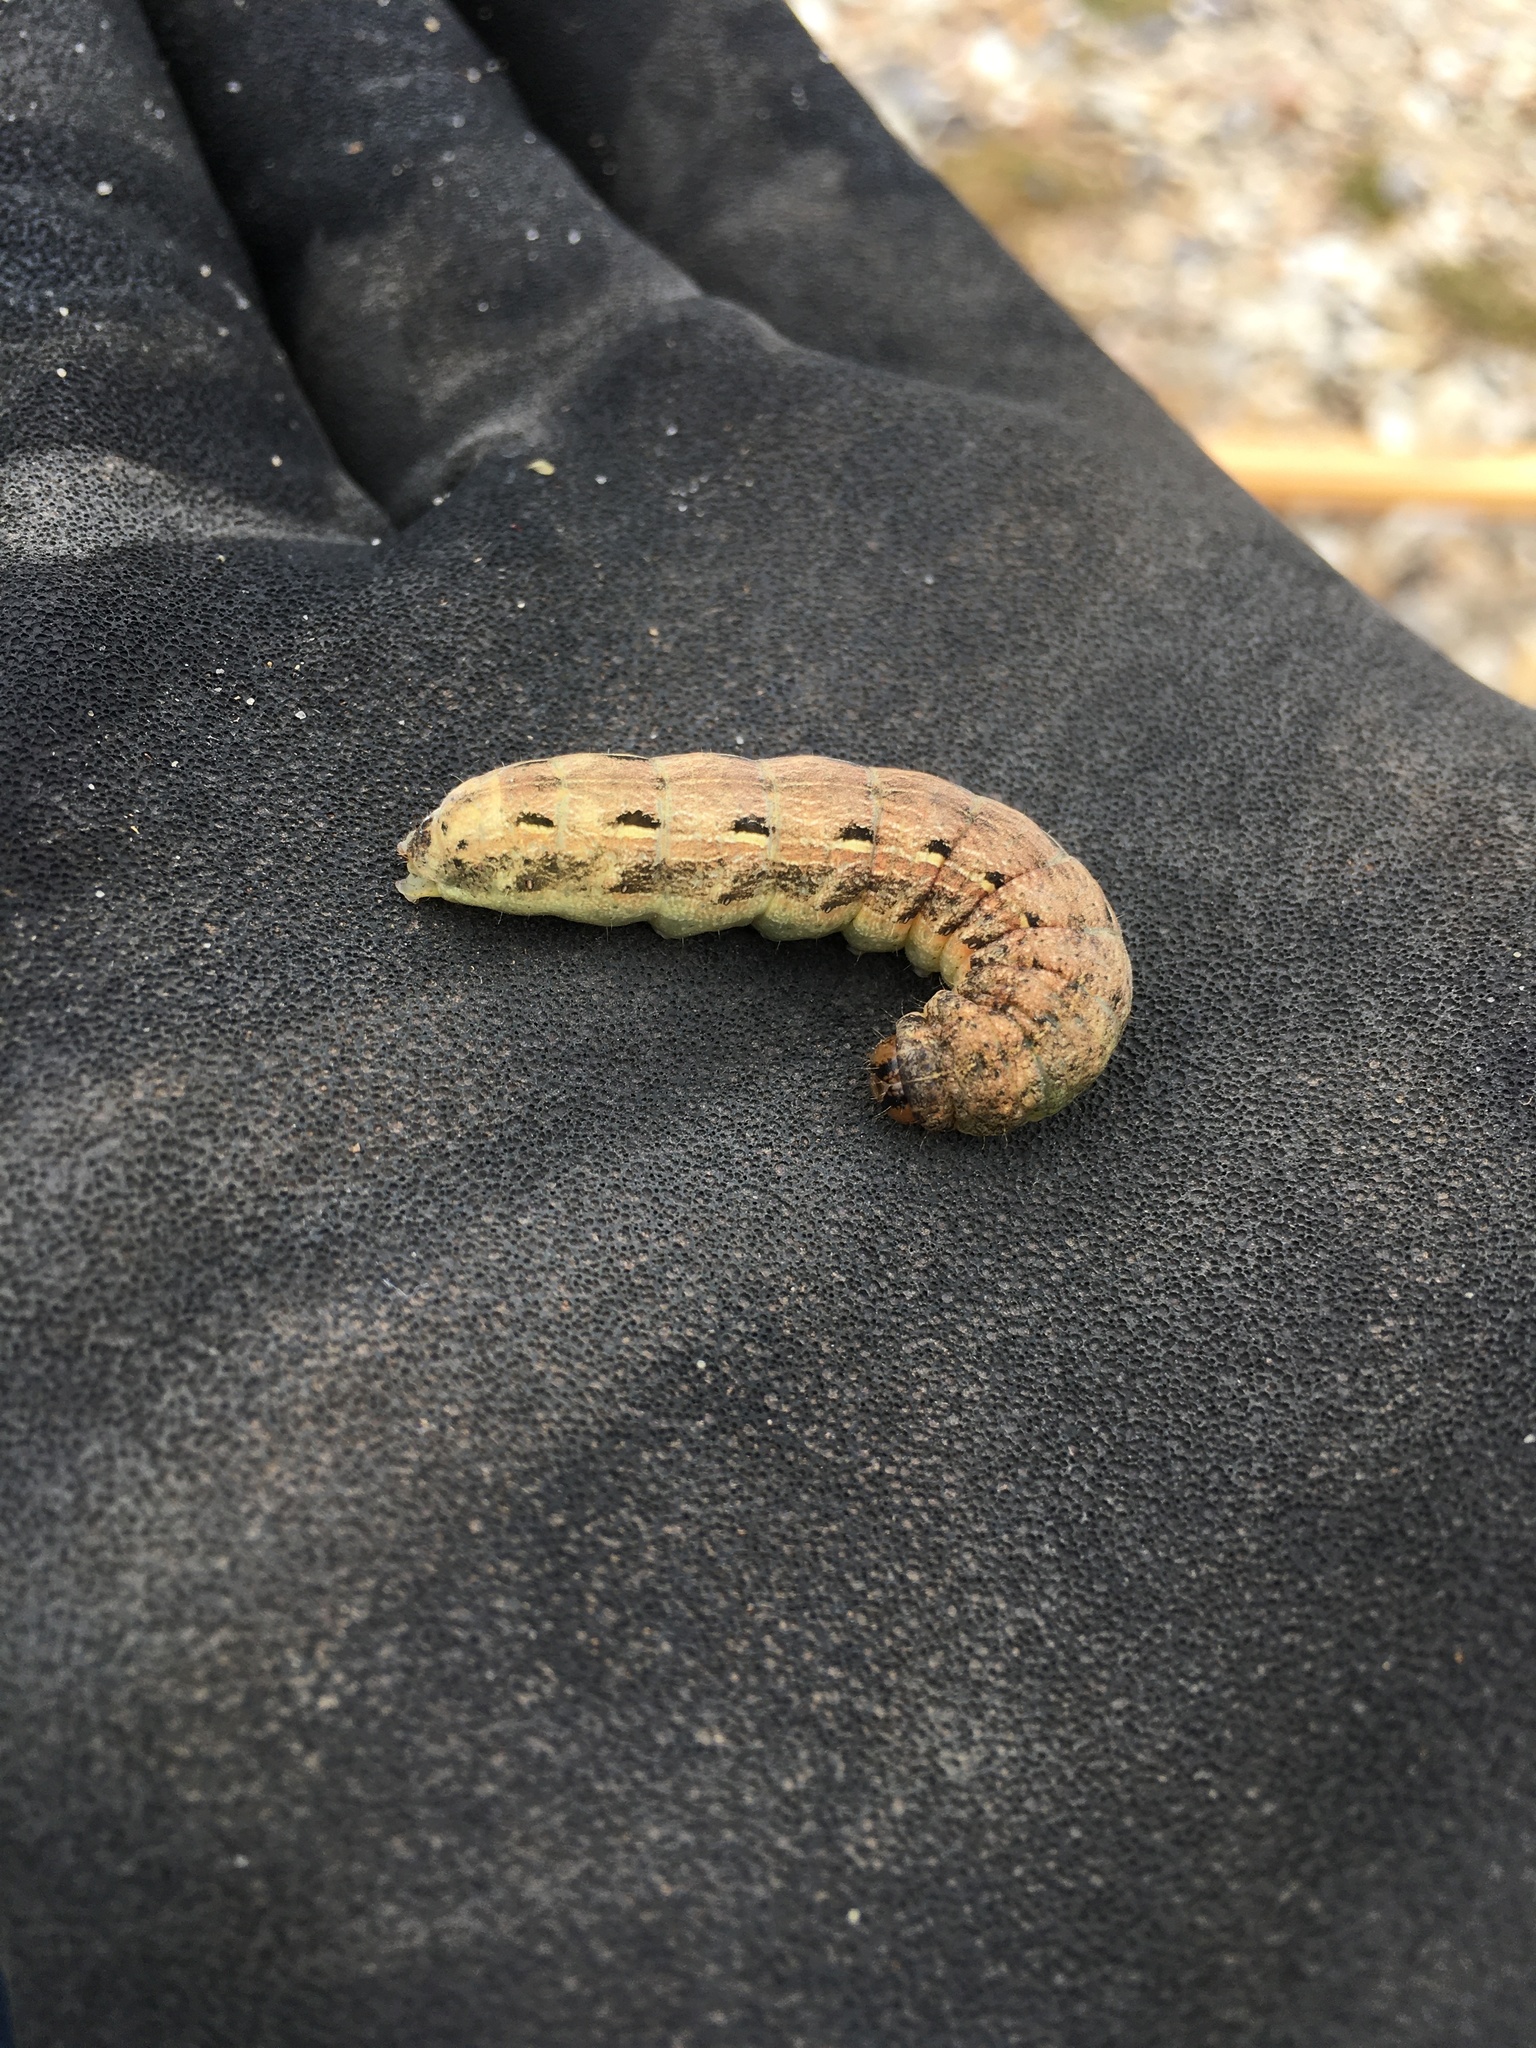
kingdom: Animalia
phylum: Arthropoda
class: Insecta
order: Lepidoptera
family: Noctuidae
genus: Noctua
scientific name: Noctua pronuba
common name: Large yellow underwing
